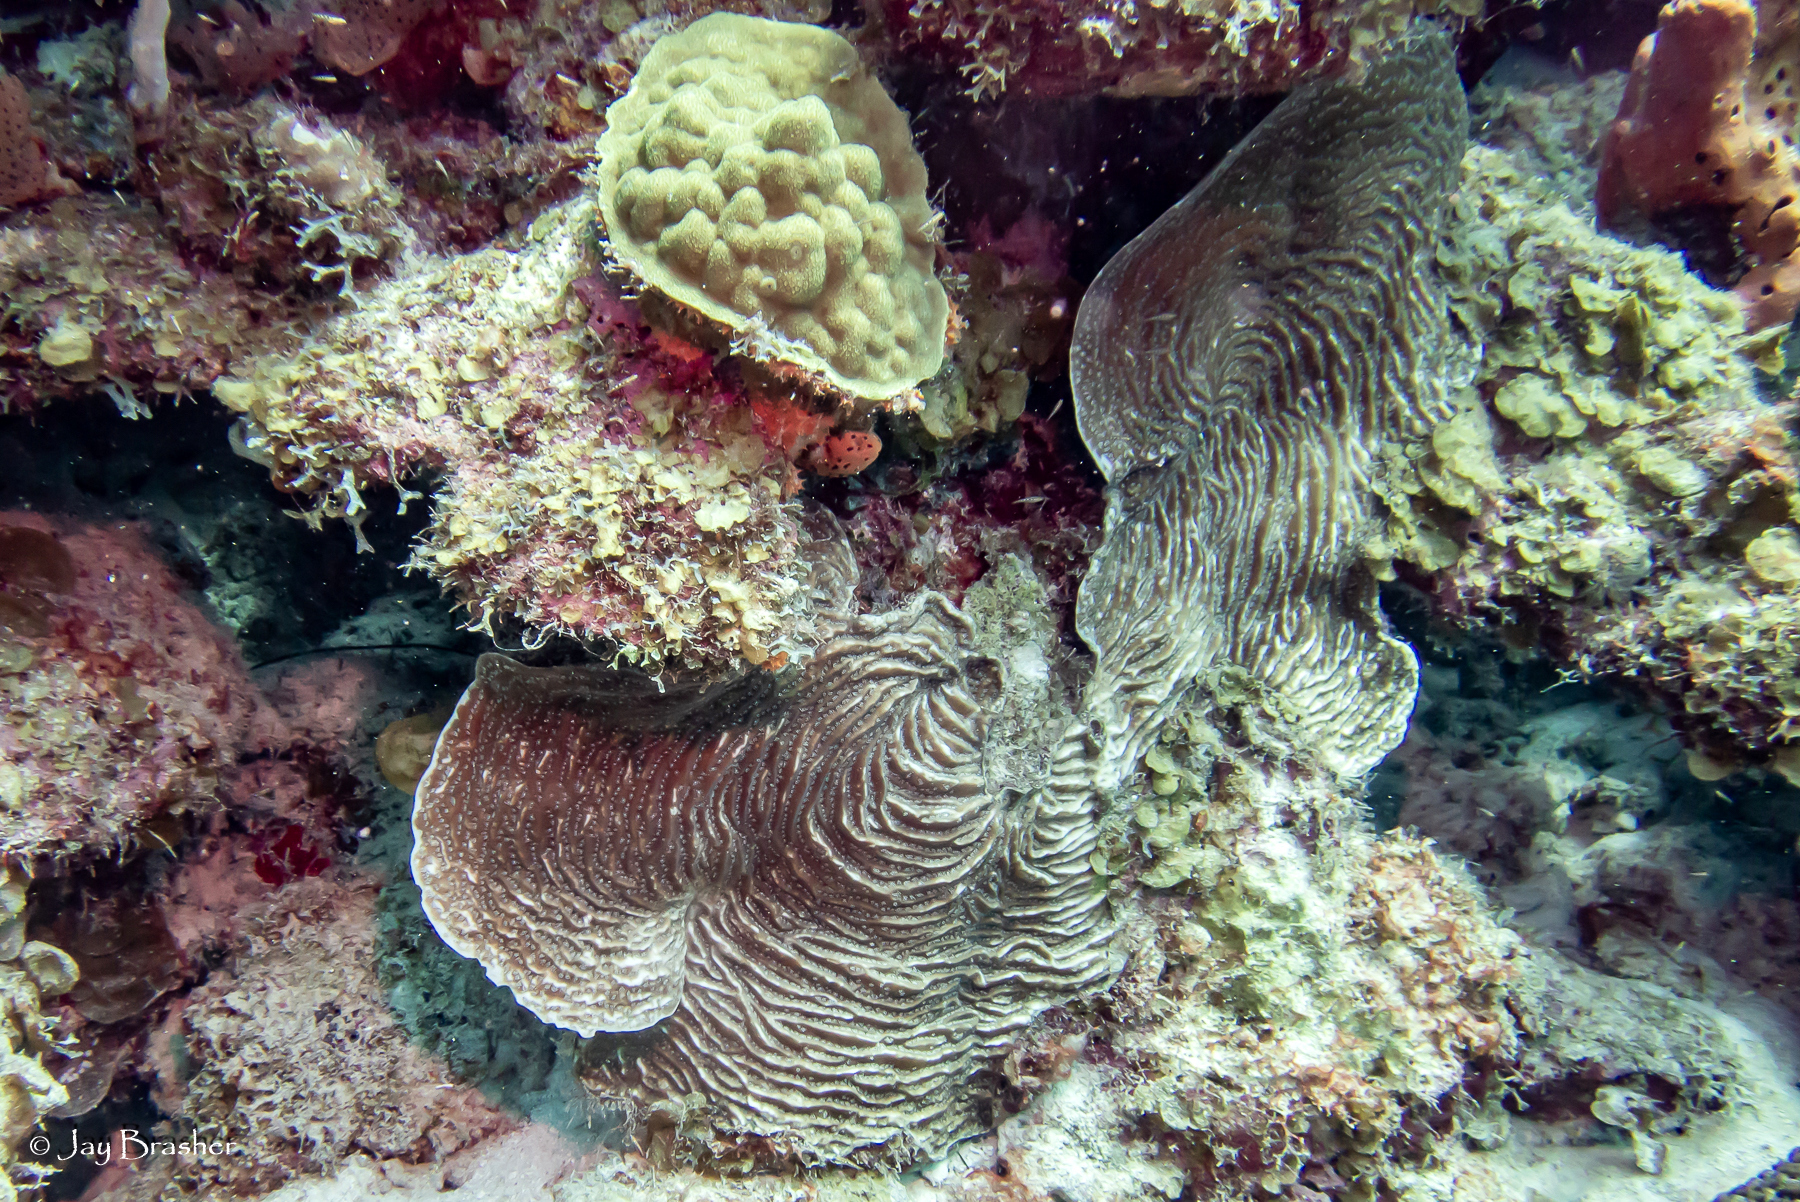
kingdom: Animalia
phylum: Cnidaria
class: Anthozoa
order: Scleractinia
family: Agariciidae
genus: Agaricia
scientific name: Agaricia lamarcki
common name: Lamarck's sheet coral
